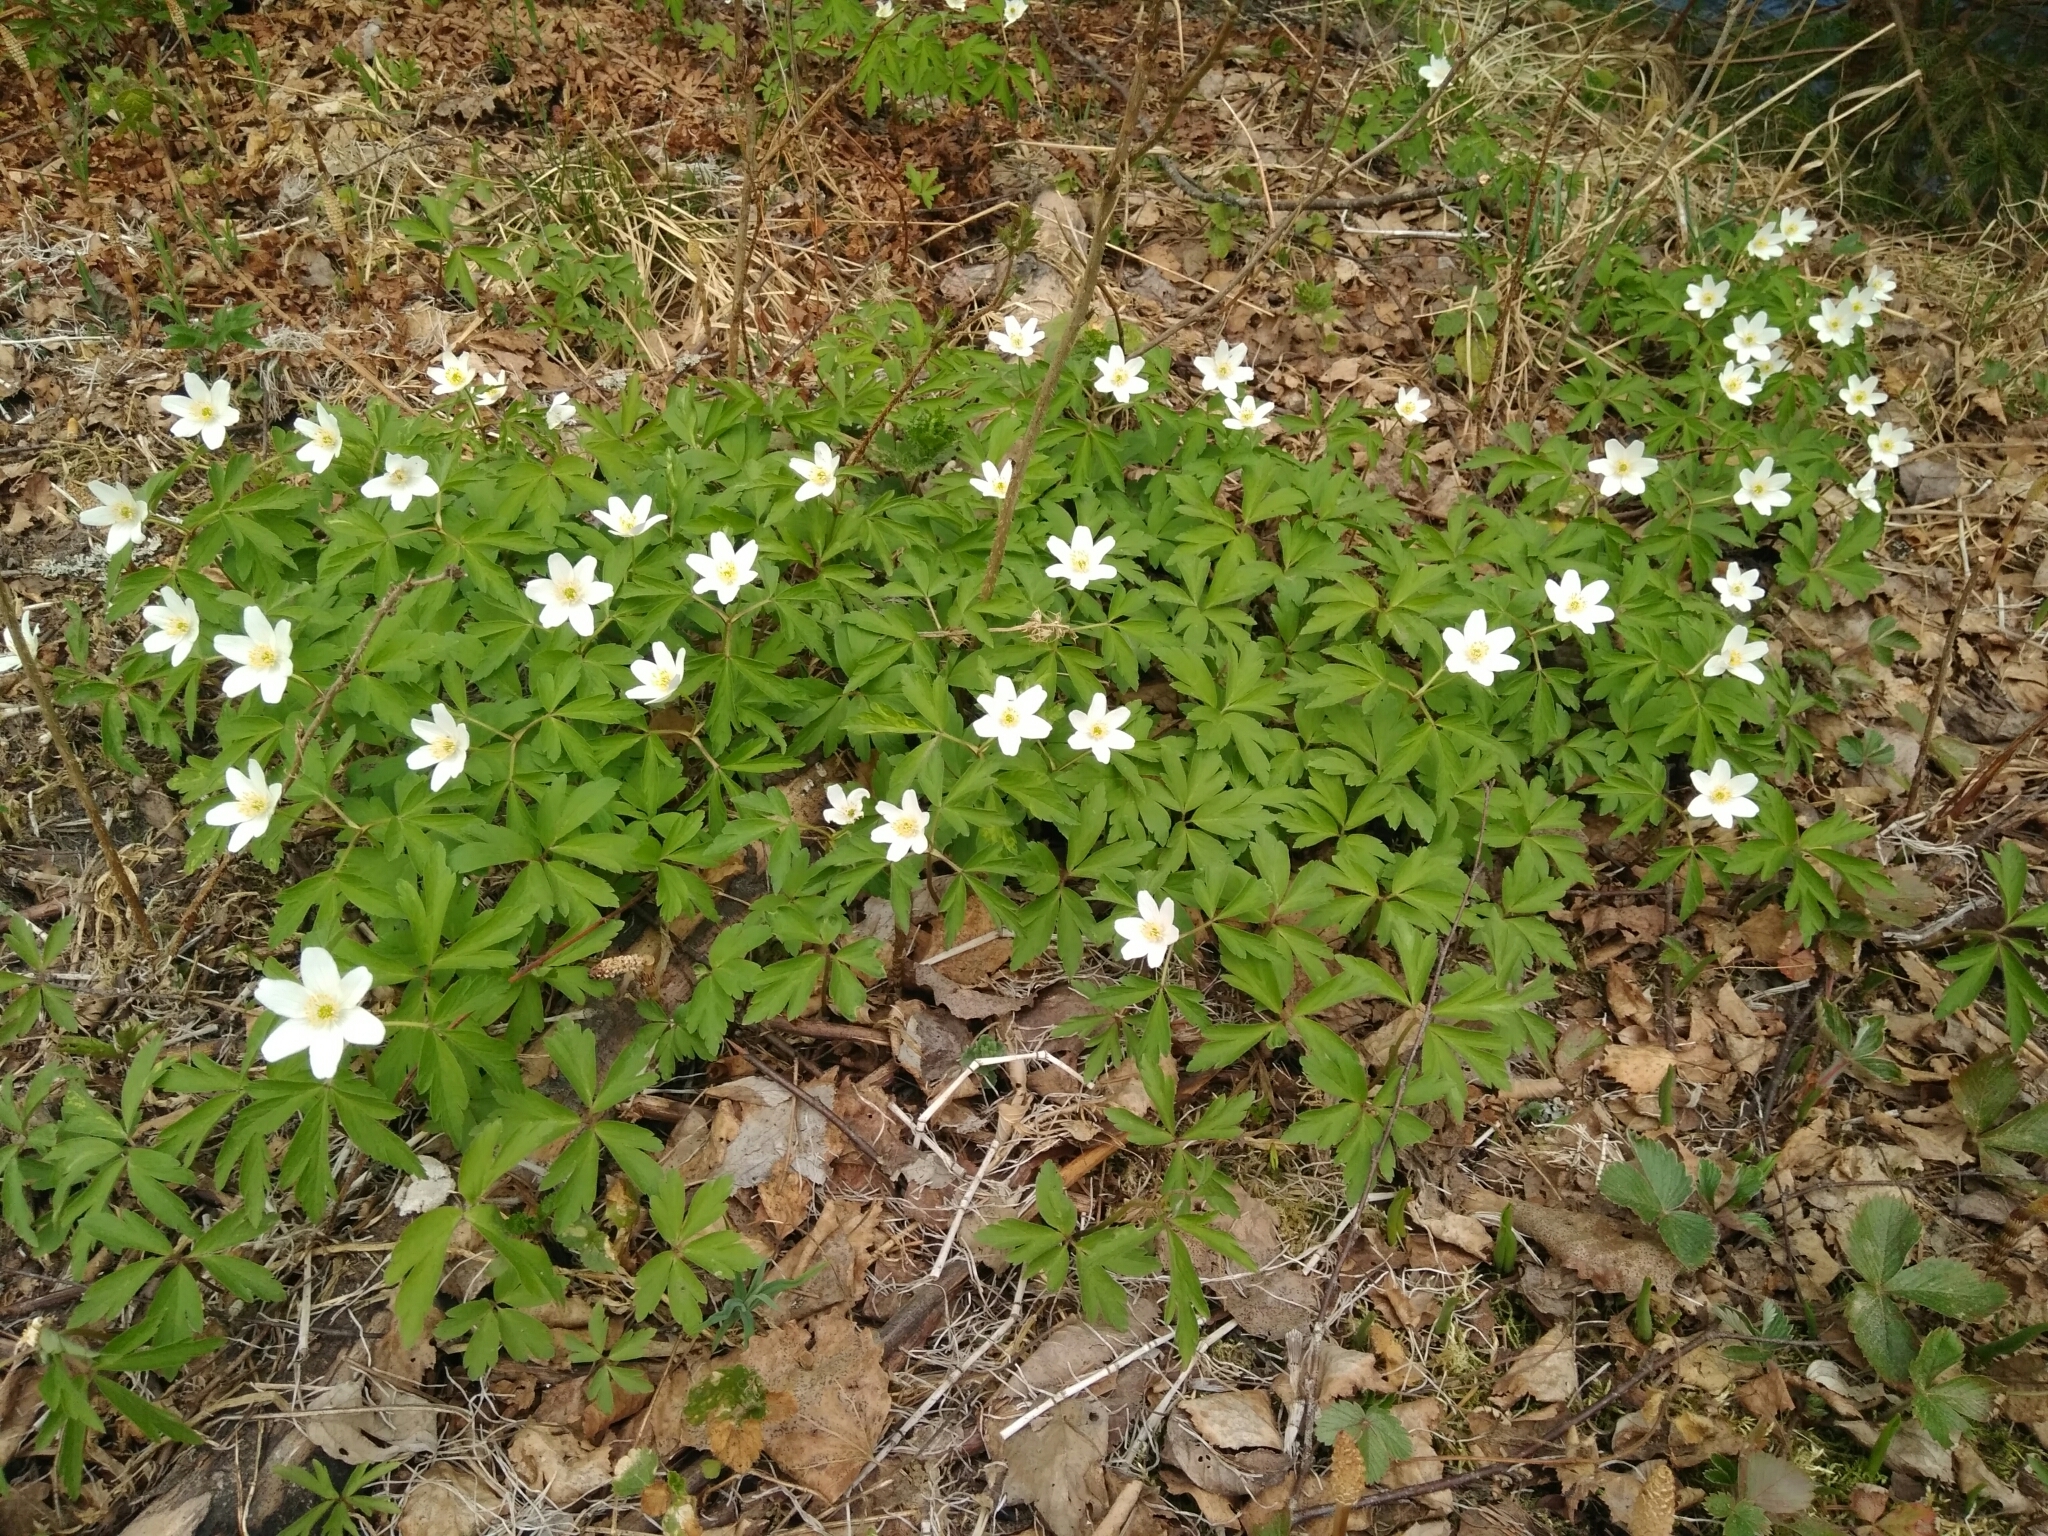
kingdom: Plantae
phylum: Tracheophyta
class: Magnoliopsida
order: Ranunculales
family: Ranunculaceae
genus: Anemone
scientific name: Anemone nemorosa
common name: Wood anemone
